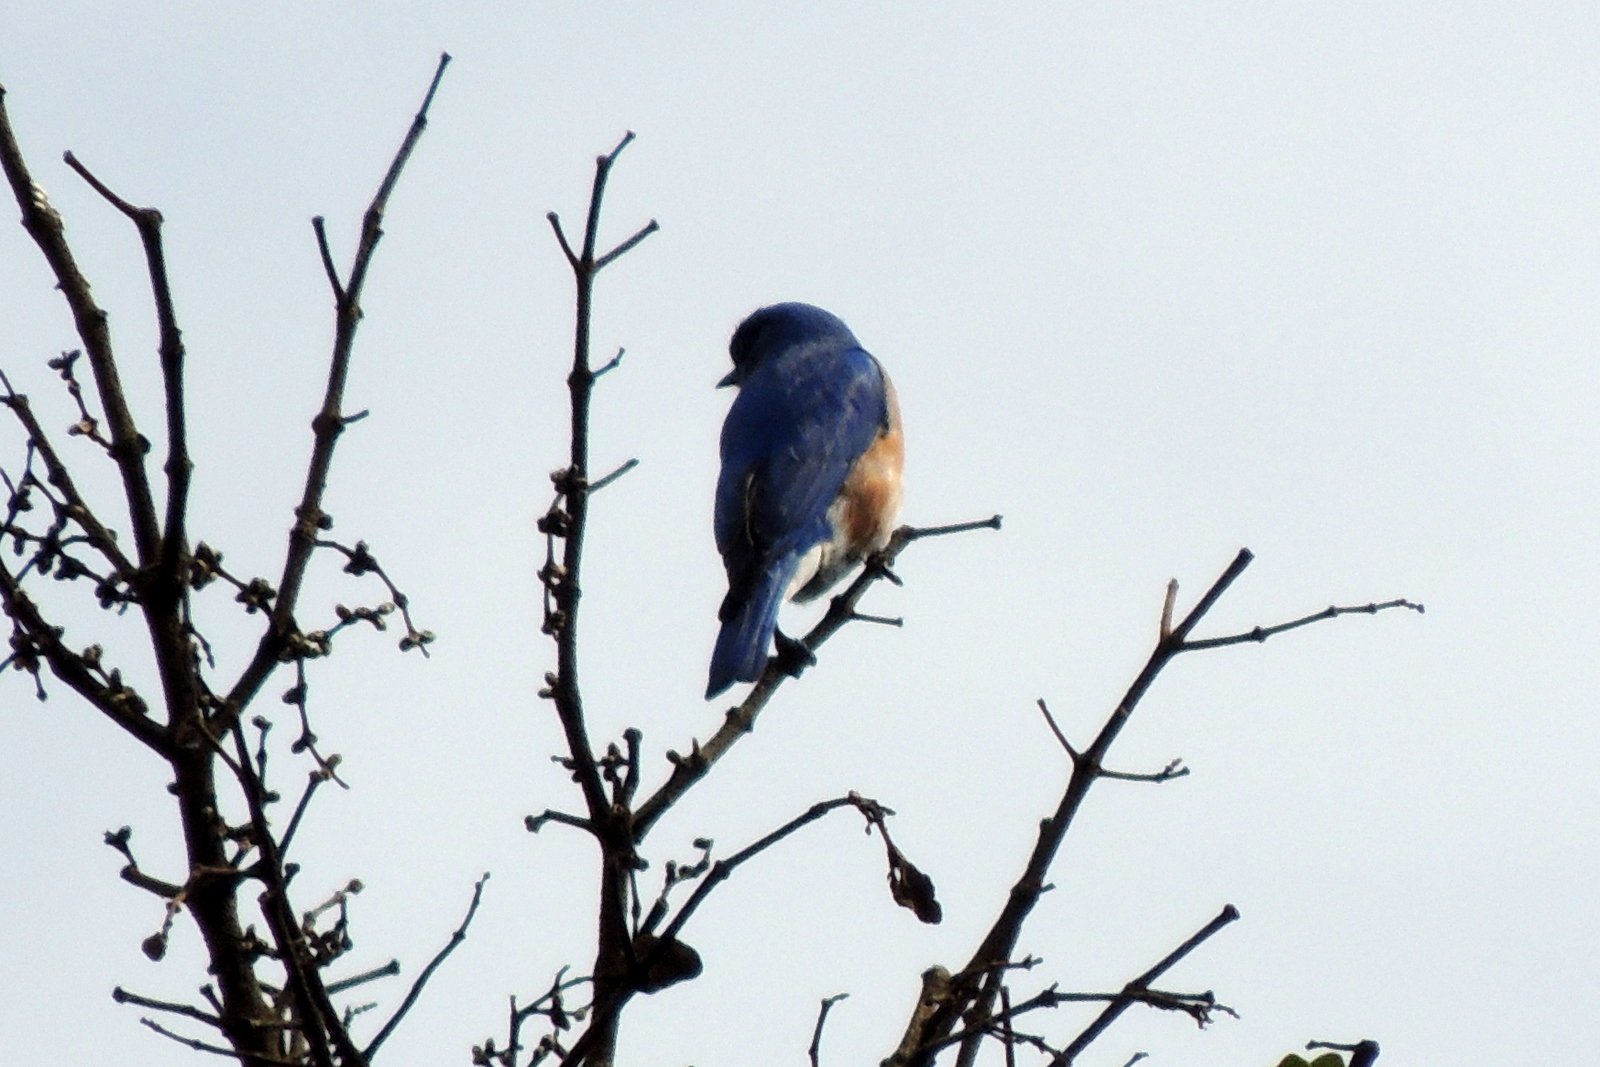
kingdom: Animalia
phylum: Chordata
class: Aves
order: Passeriformes
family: Turdidae
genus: Sialia
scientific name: Sialia sialis
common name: Eastern bluebird
